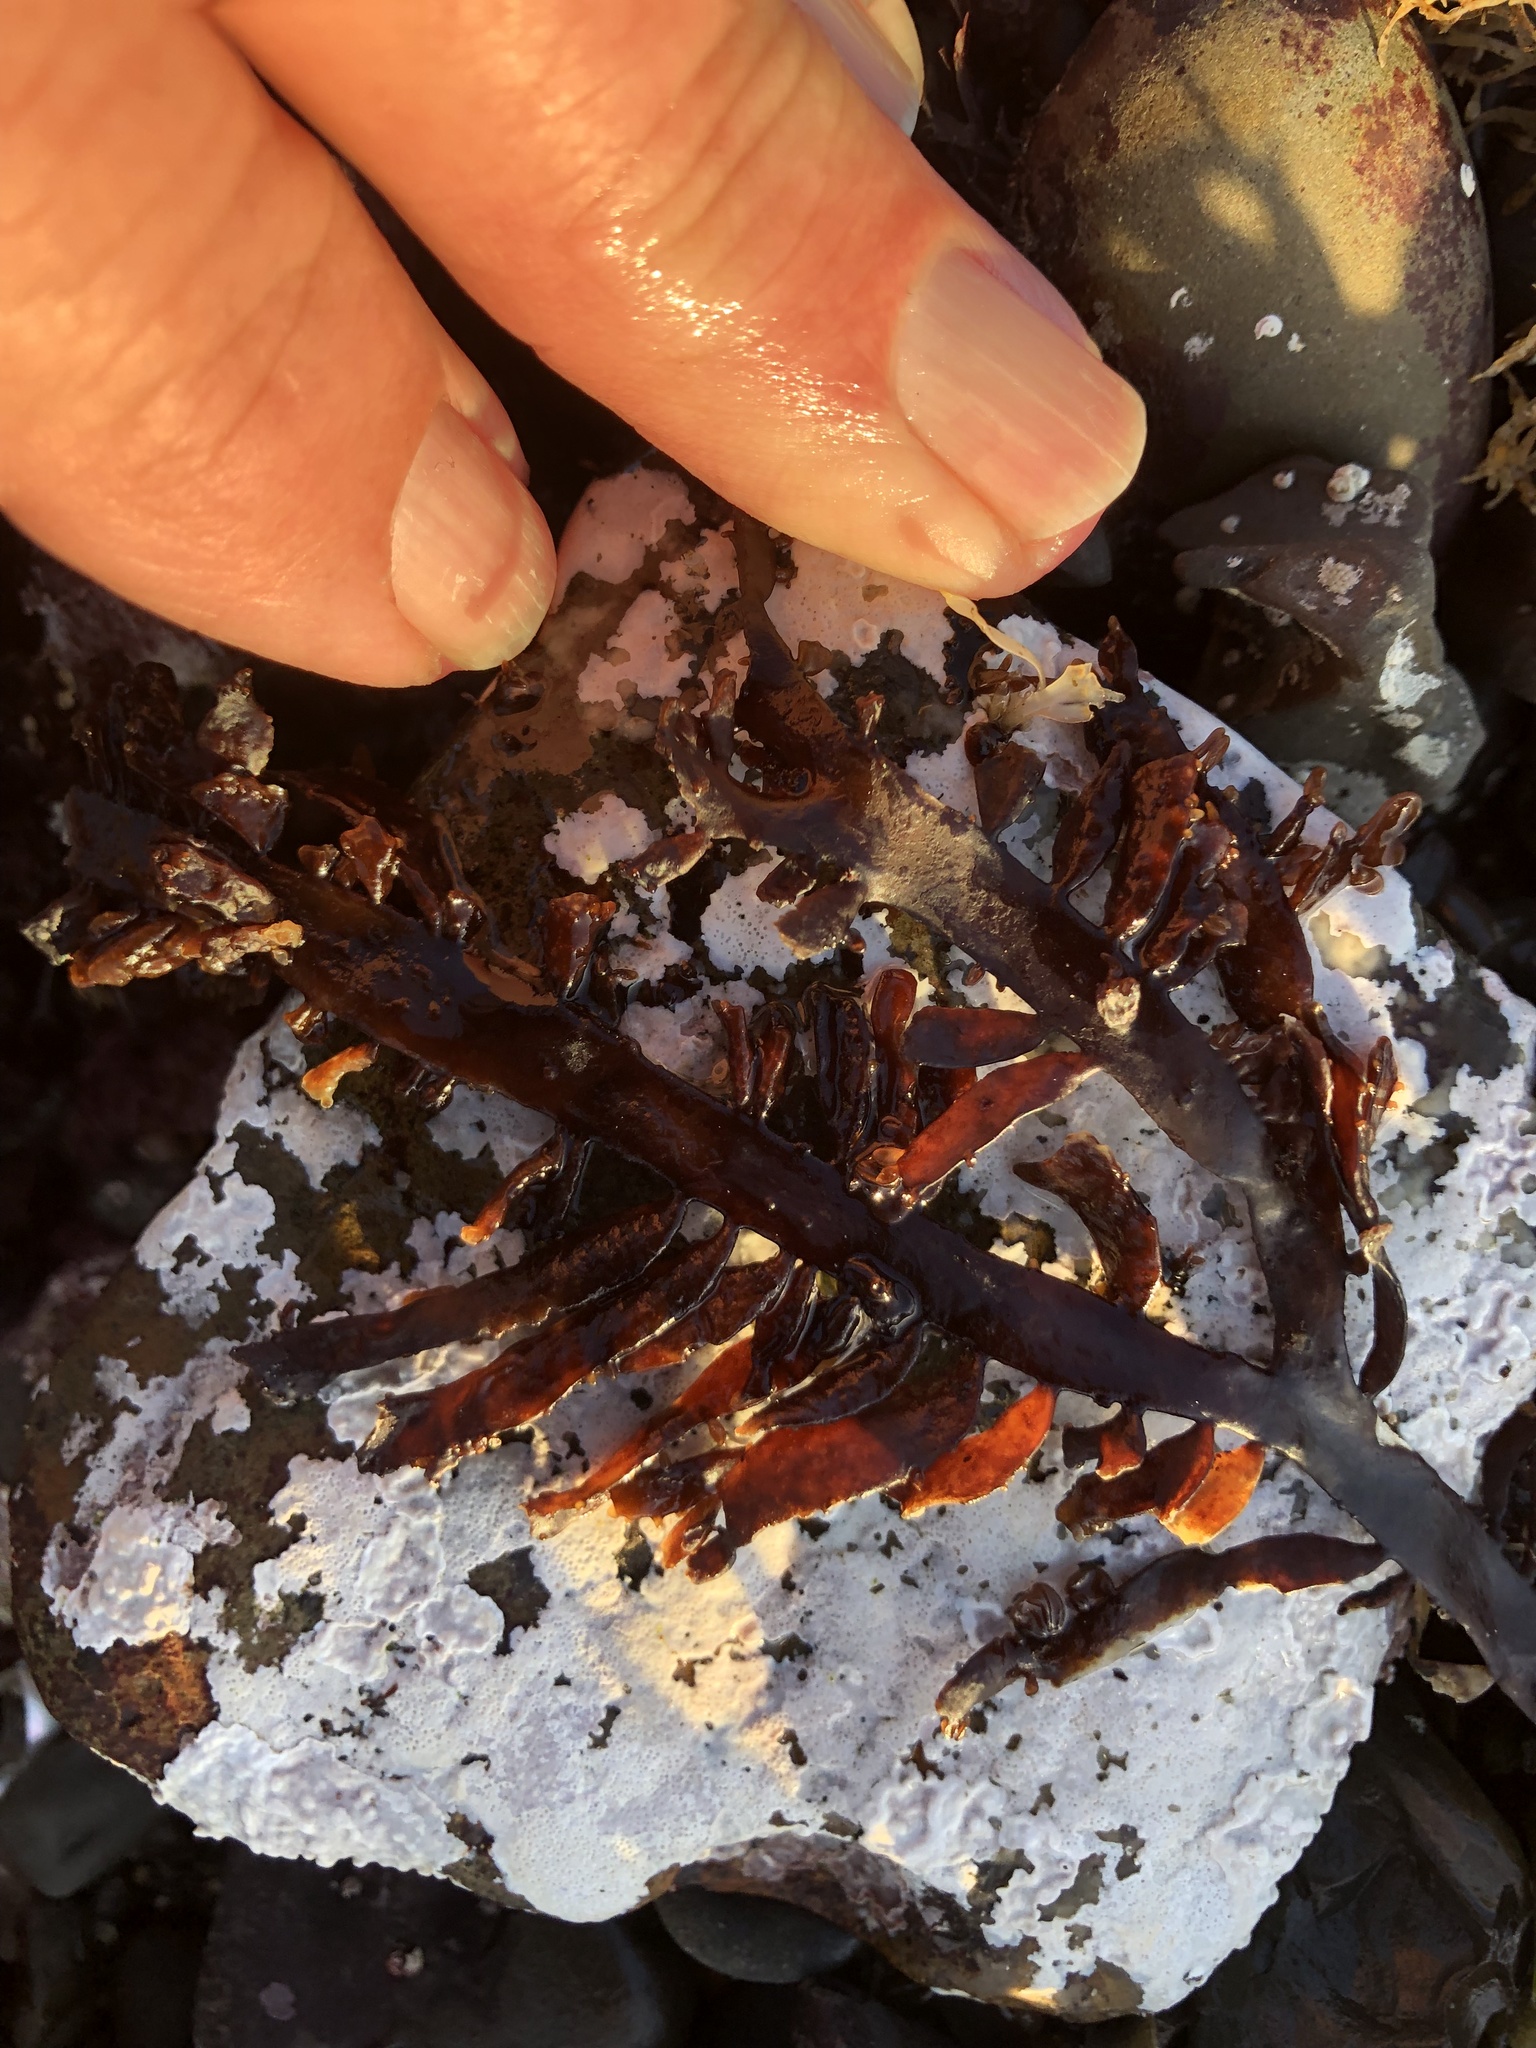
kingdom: Plantae
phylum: Rhodophyta
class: Florideophyceae
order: Halymeniales
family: Halymeniaceae
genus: Grateloupia
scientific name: Grateloupia Prionitis lanceolata
